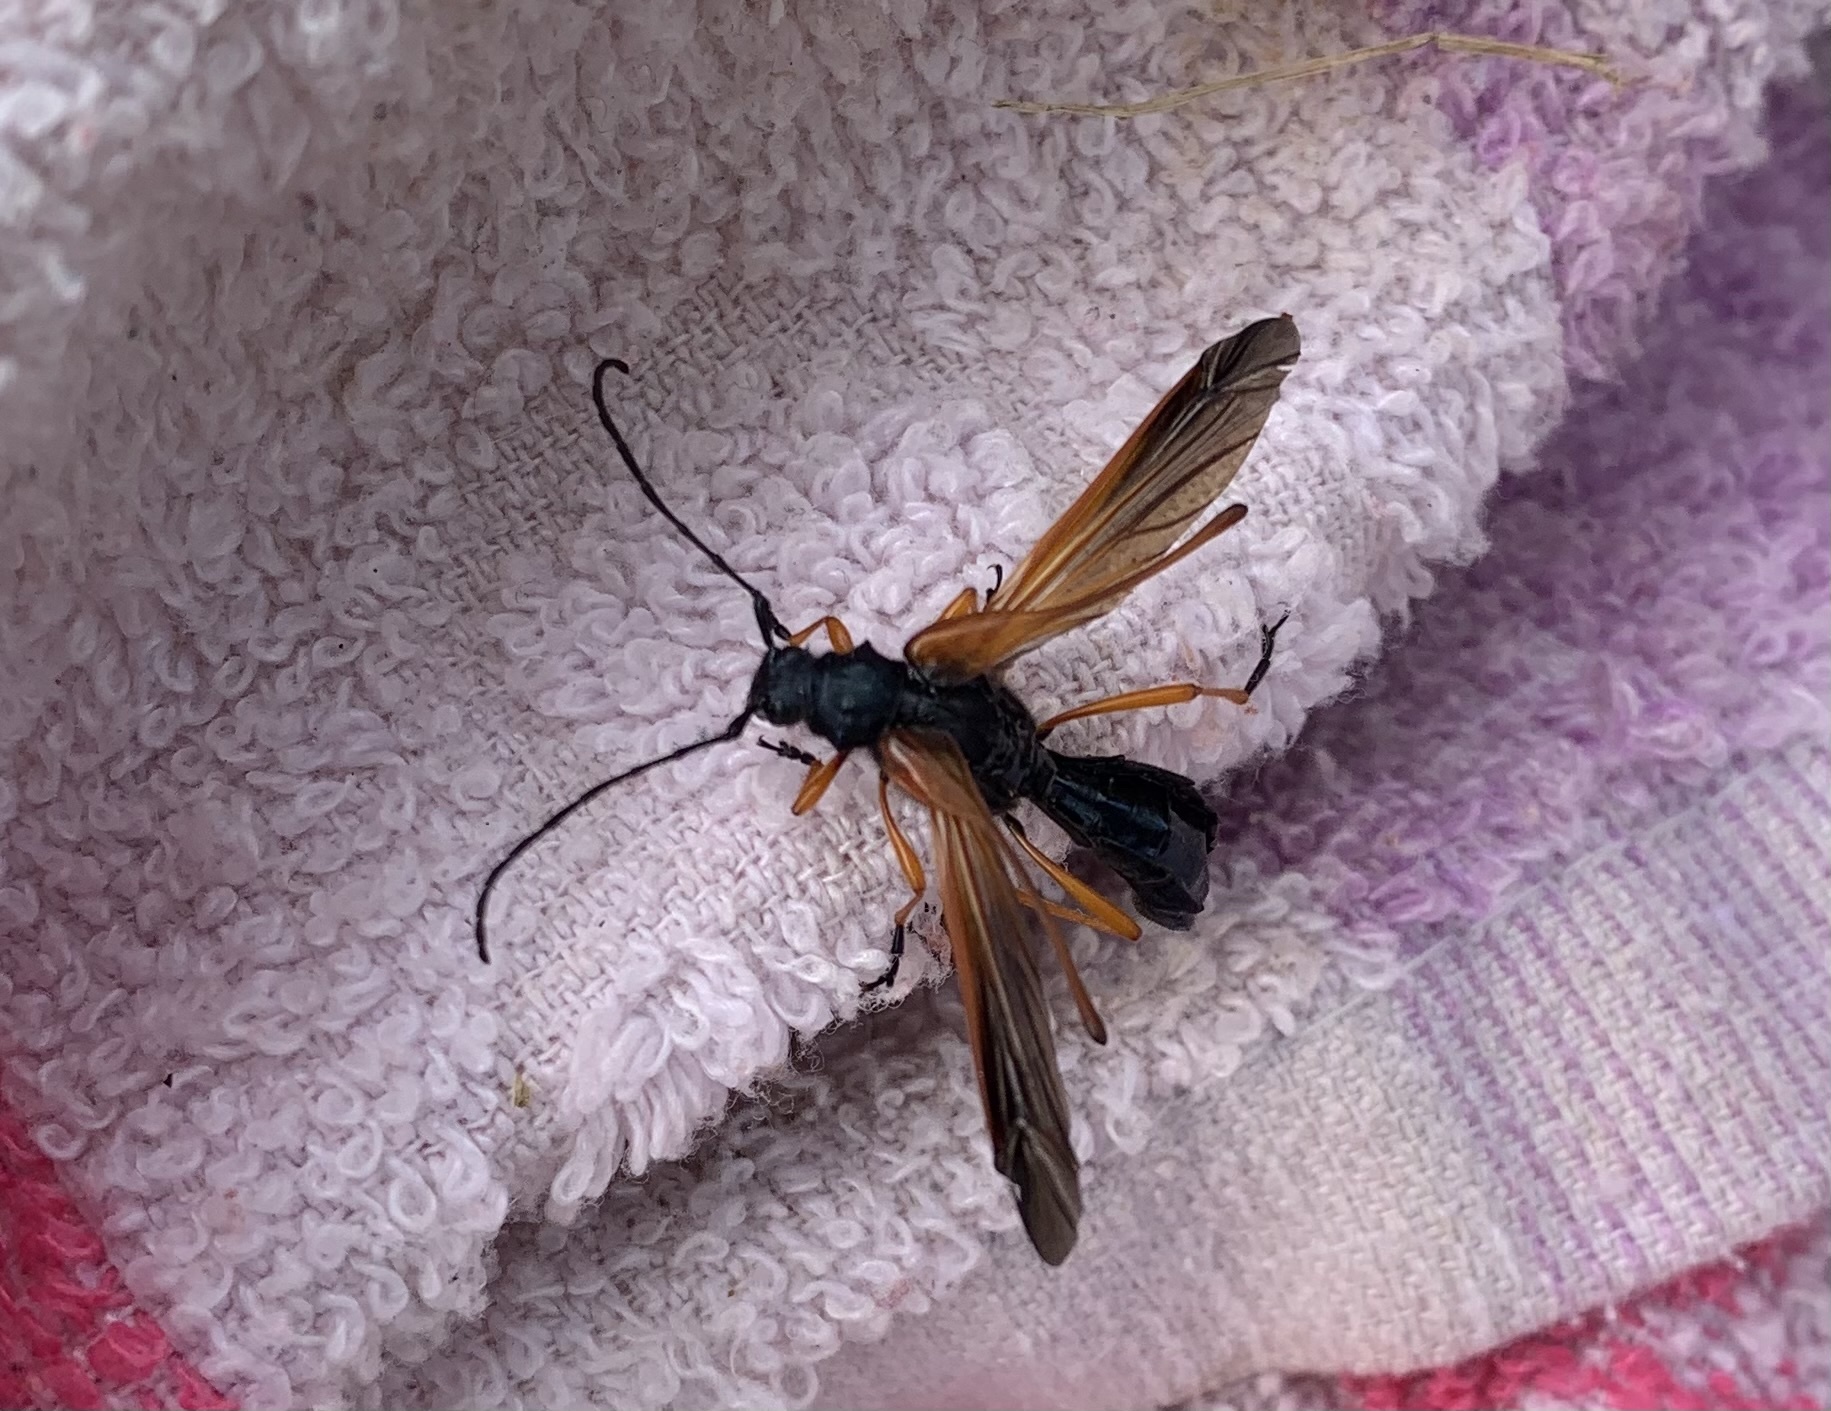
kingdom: Animalia
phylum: Arthropoda
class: Insecta
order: Coleoptera
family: Cerambycidae
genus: Callisphyris
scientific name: Callisphyris rufiventer
